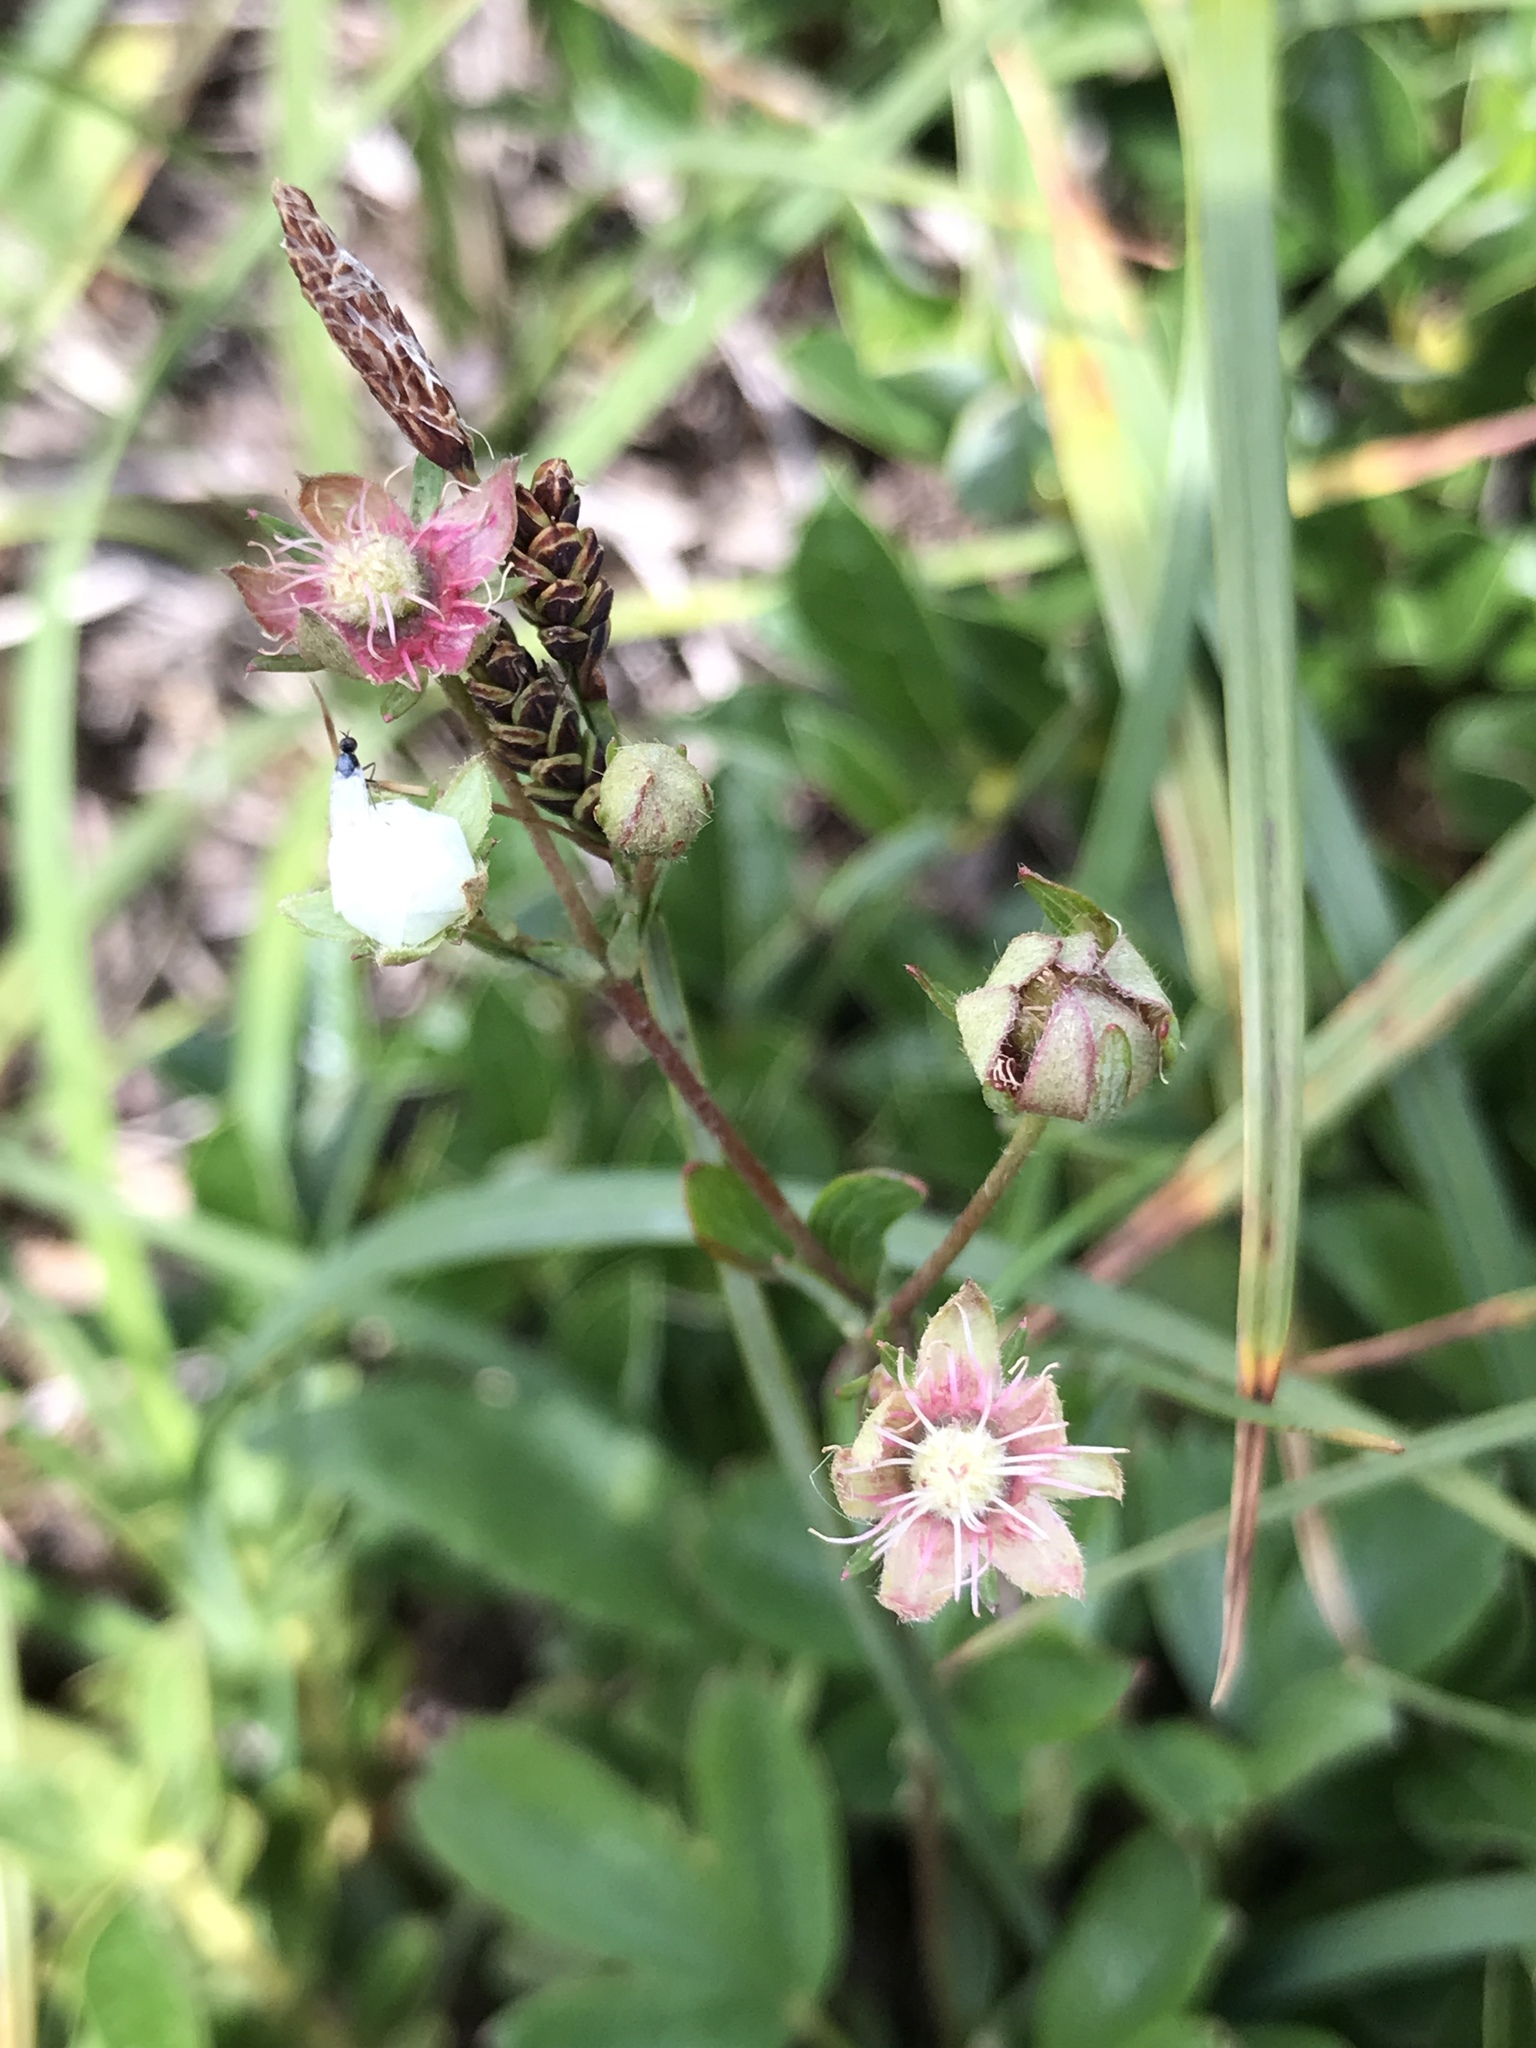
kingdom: Plantae
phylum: Tracheophyta
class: Magnoliopsida
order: Rosales
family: Rosaceae
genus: Sibbaldia
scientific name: Sibbaldia tridentata
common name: Three-toothed cinquefoil
